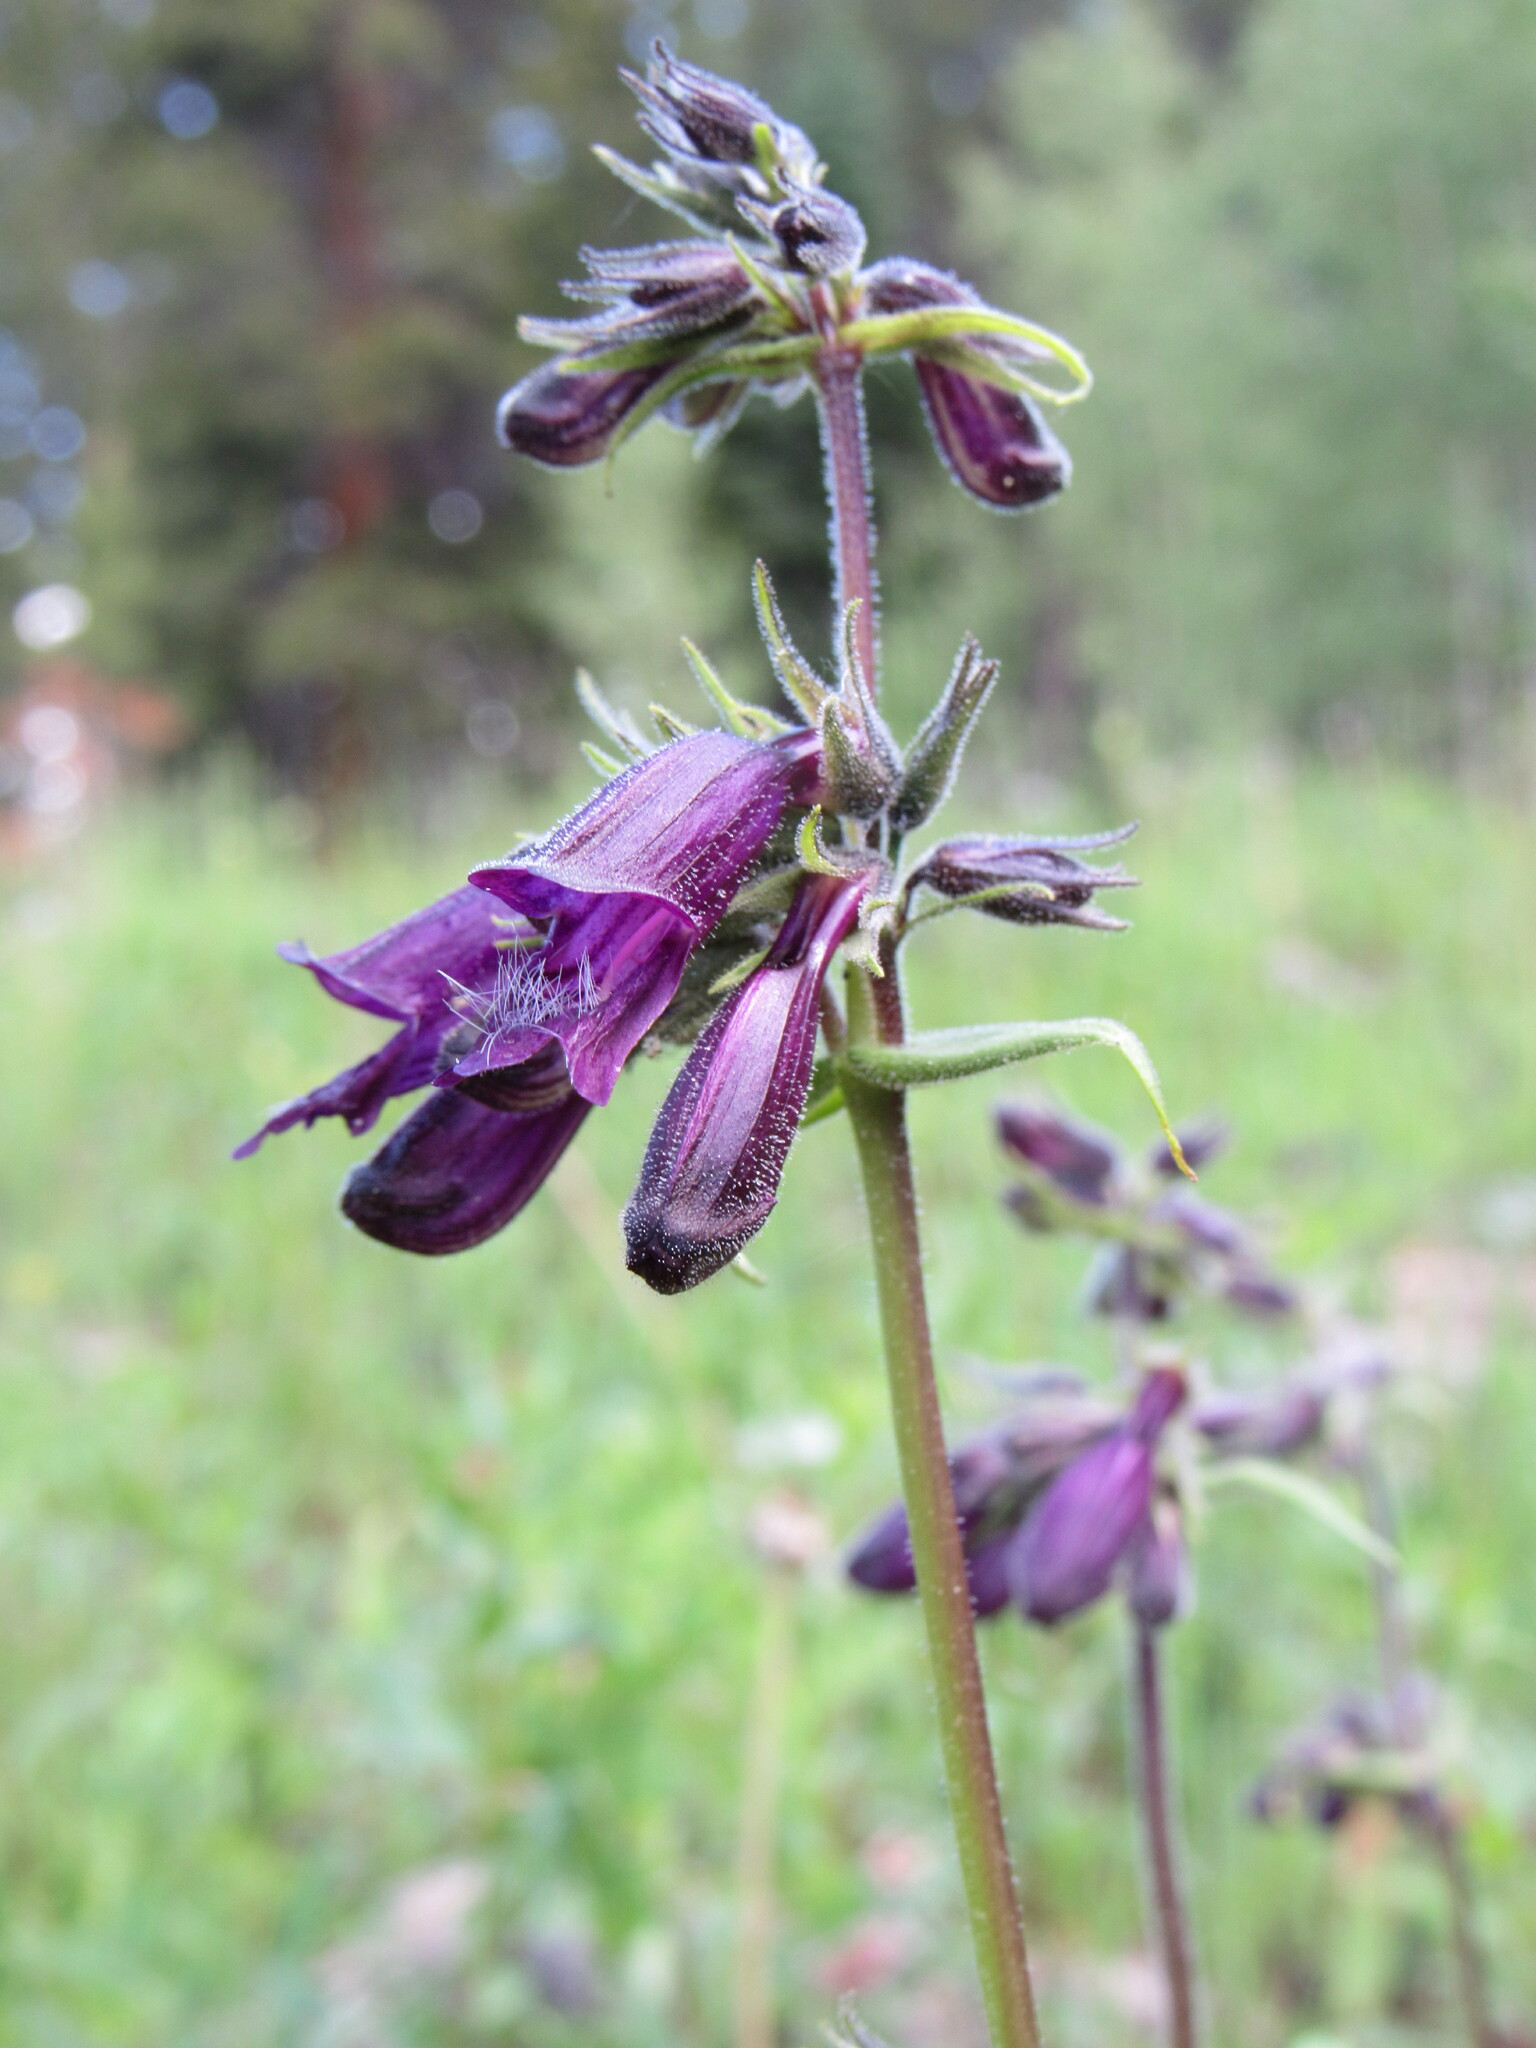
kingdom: Plantae
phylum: Tracheophyta
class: Magnoliopsida
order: Lamiales
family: Plantaginaceae
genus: Penstemon
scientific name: Penstemon whippleanus
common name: Whipple's penstemon
